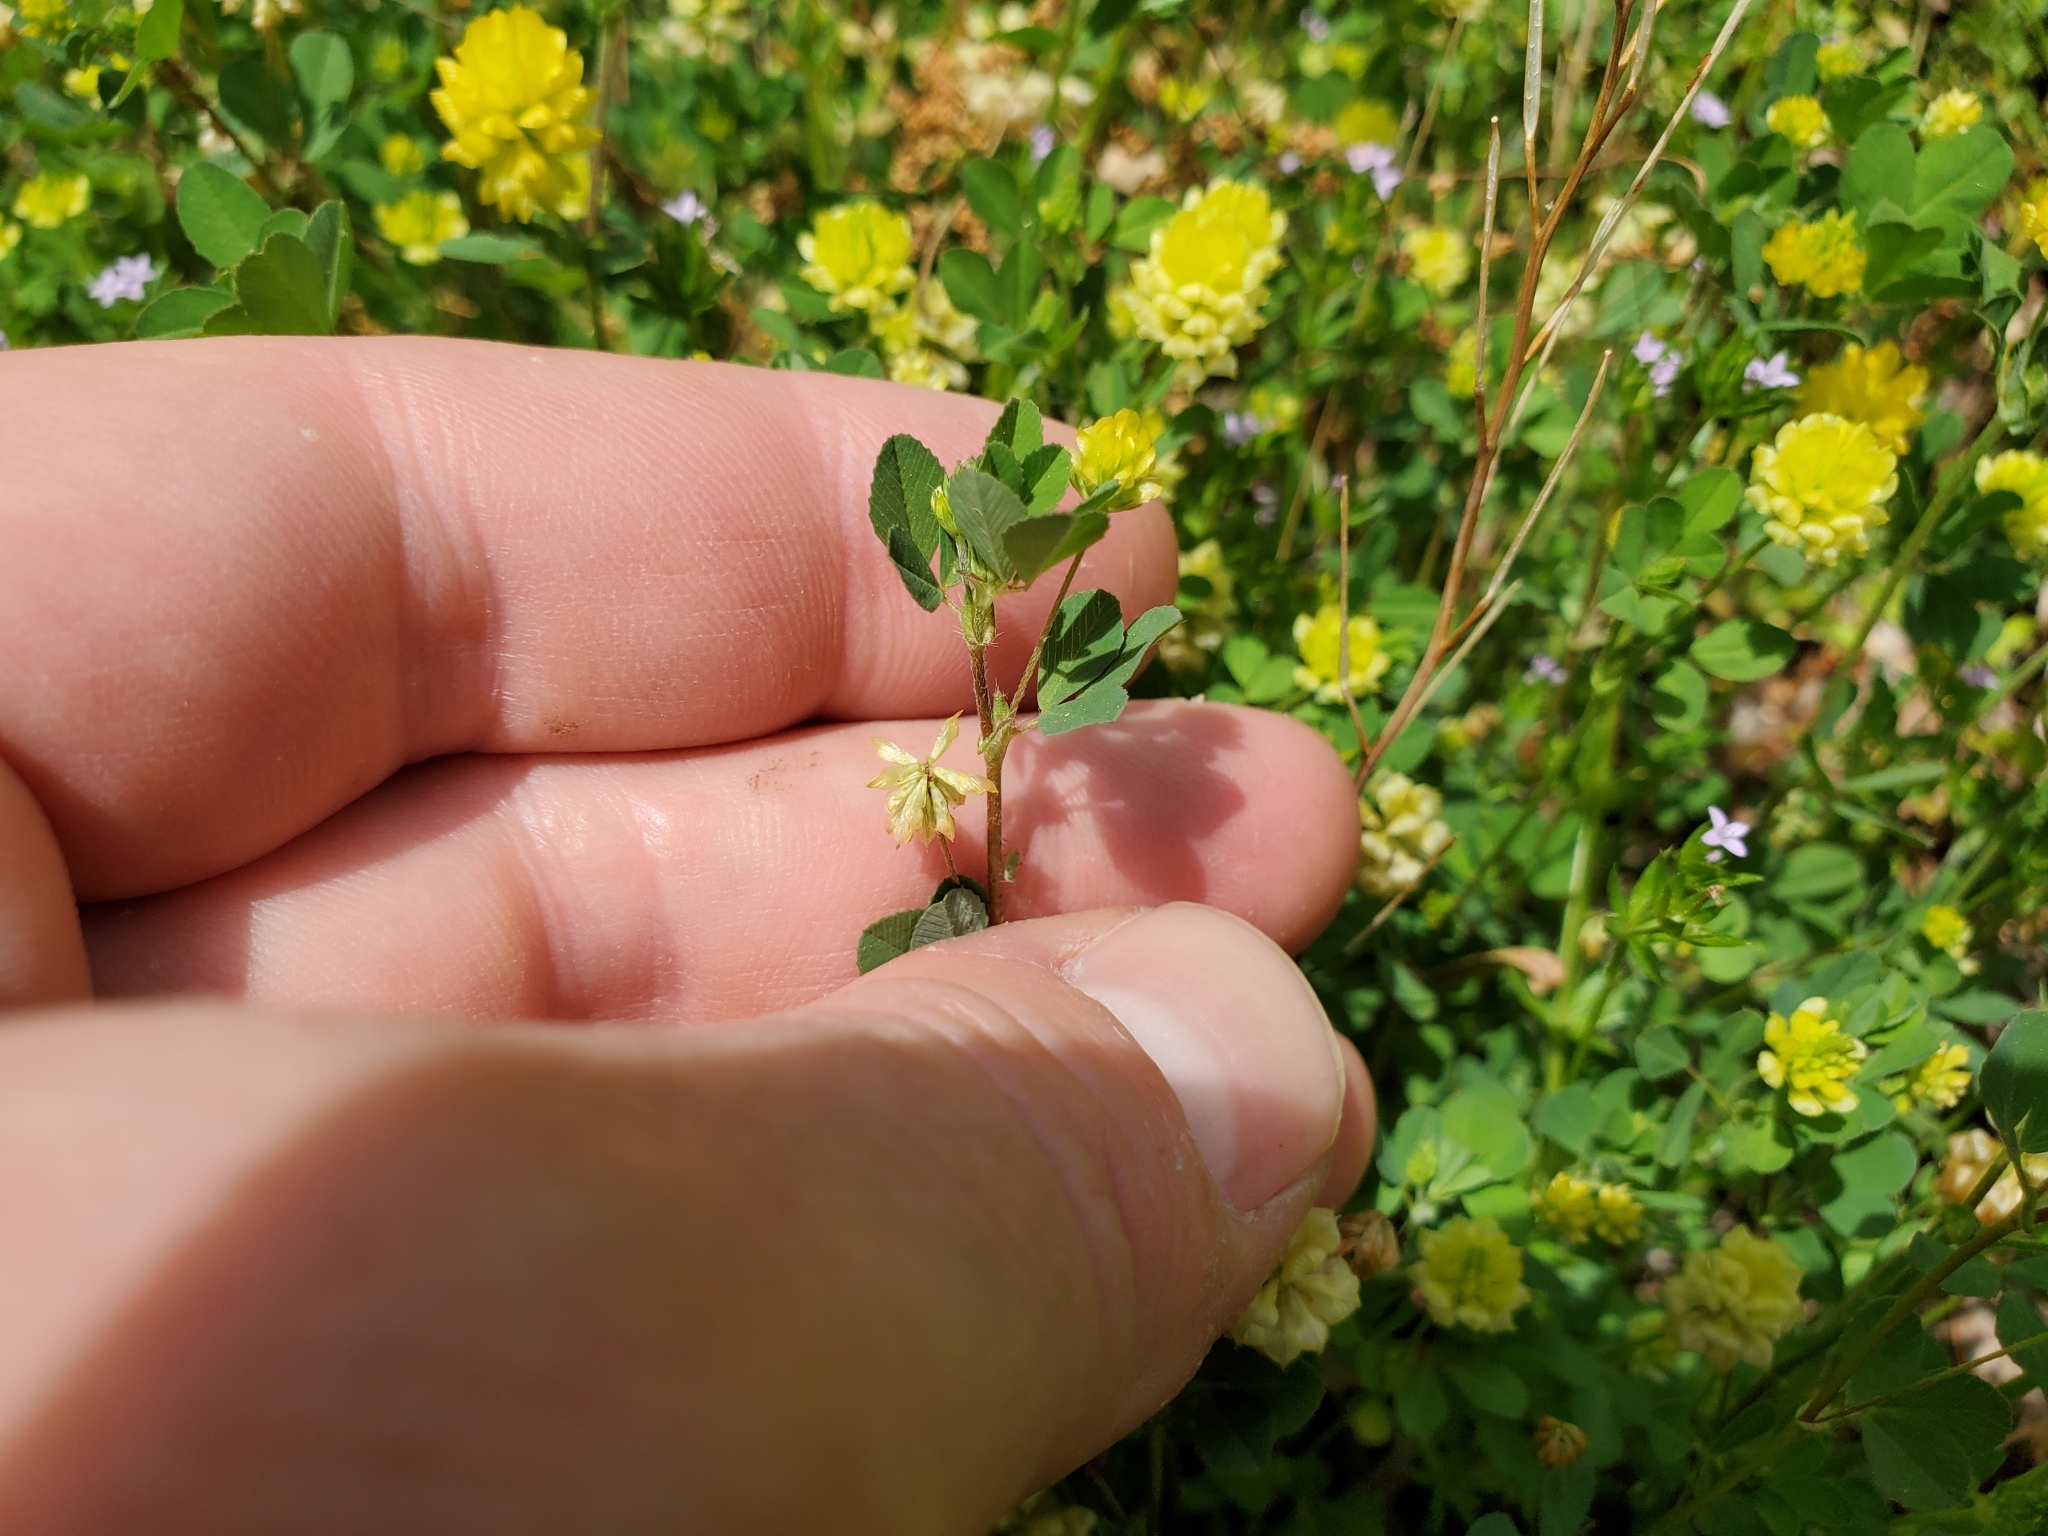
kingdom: Plantae
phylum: Tracheophyta
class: Magnoliopsida
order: Fabales
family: Fabaceae
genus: Trifolium
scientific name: Trifolium campestre
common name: Field clover
